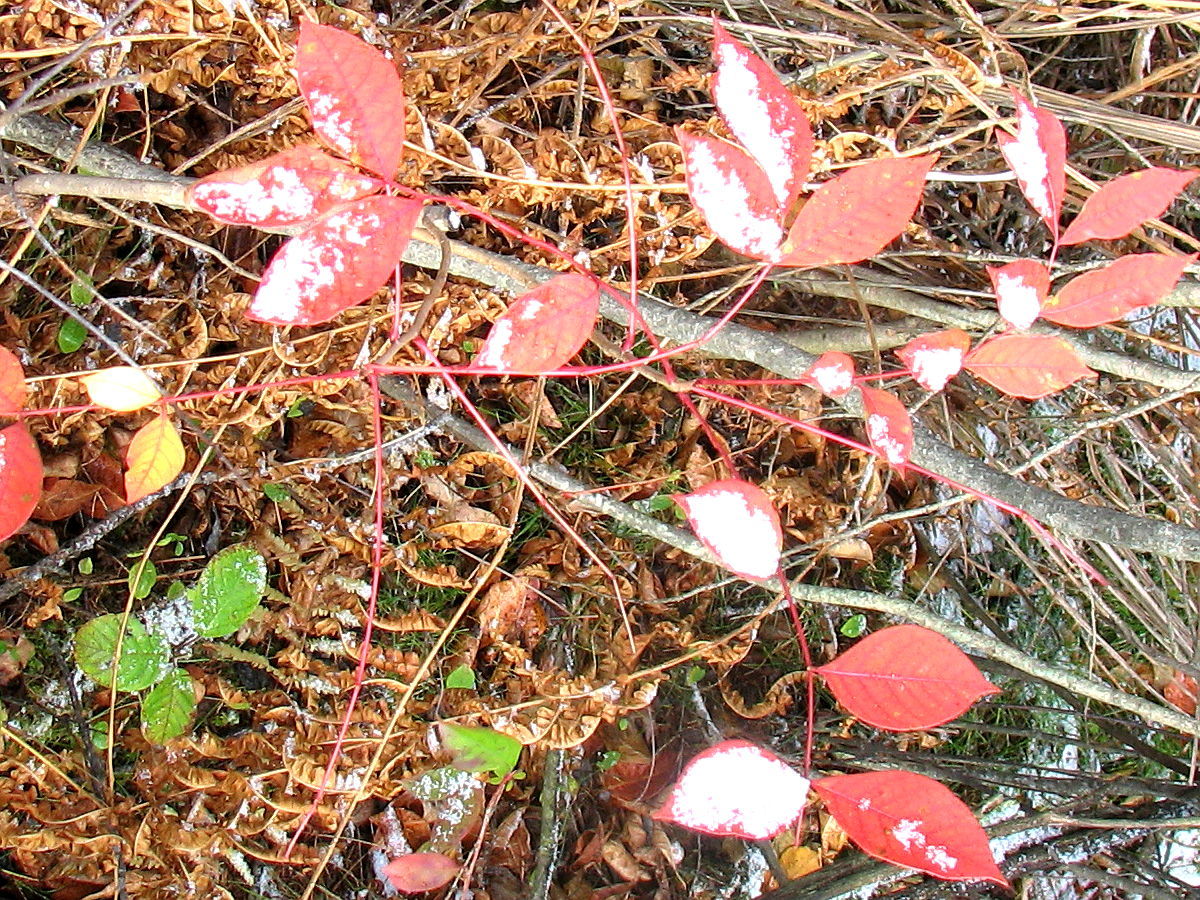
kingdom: Plantae
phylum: Tracheophyta
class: Magnoliopsida
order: Sapindales
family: Anacardiaceae
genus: Toxicodendron
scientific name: Toxicodendron vernix
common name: Poison sumac
